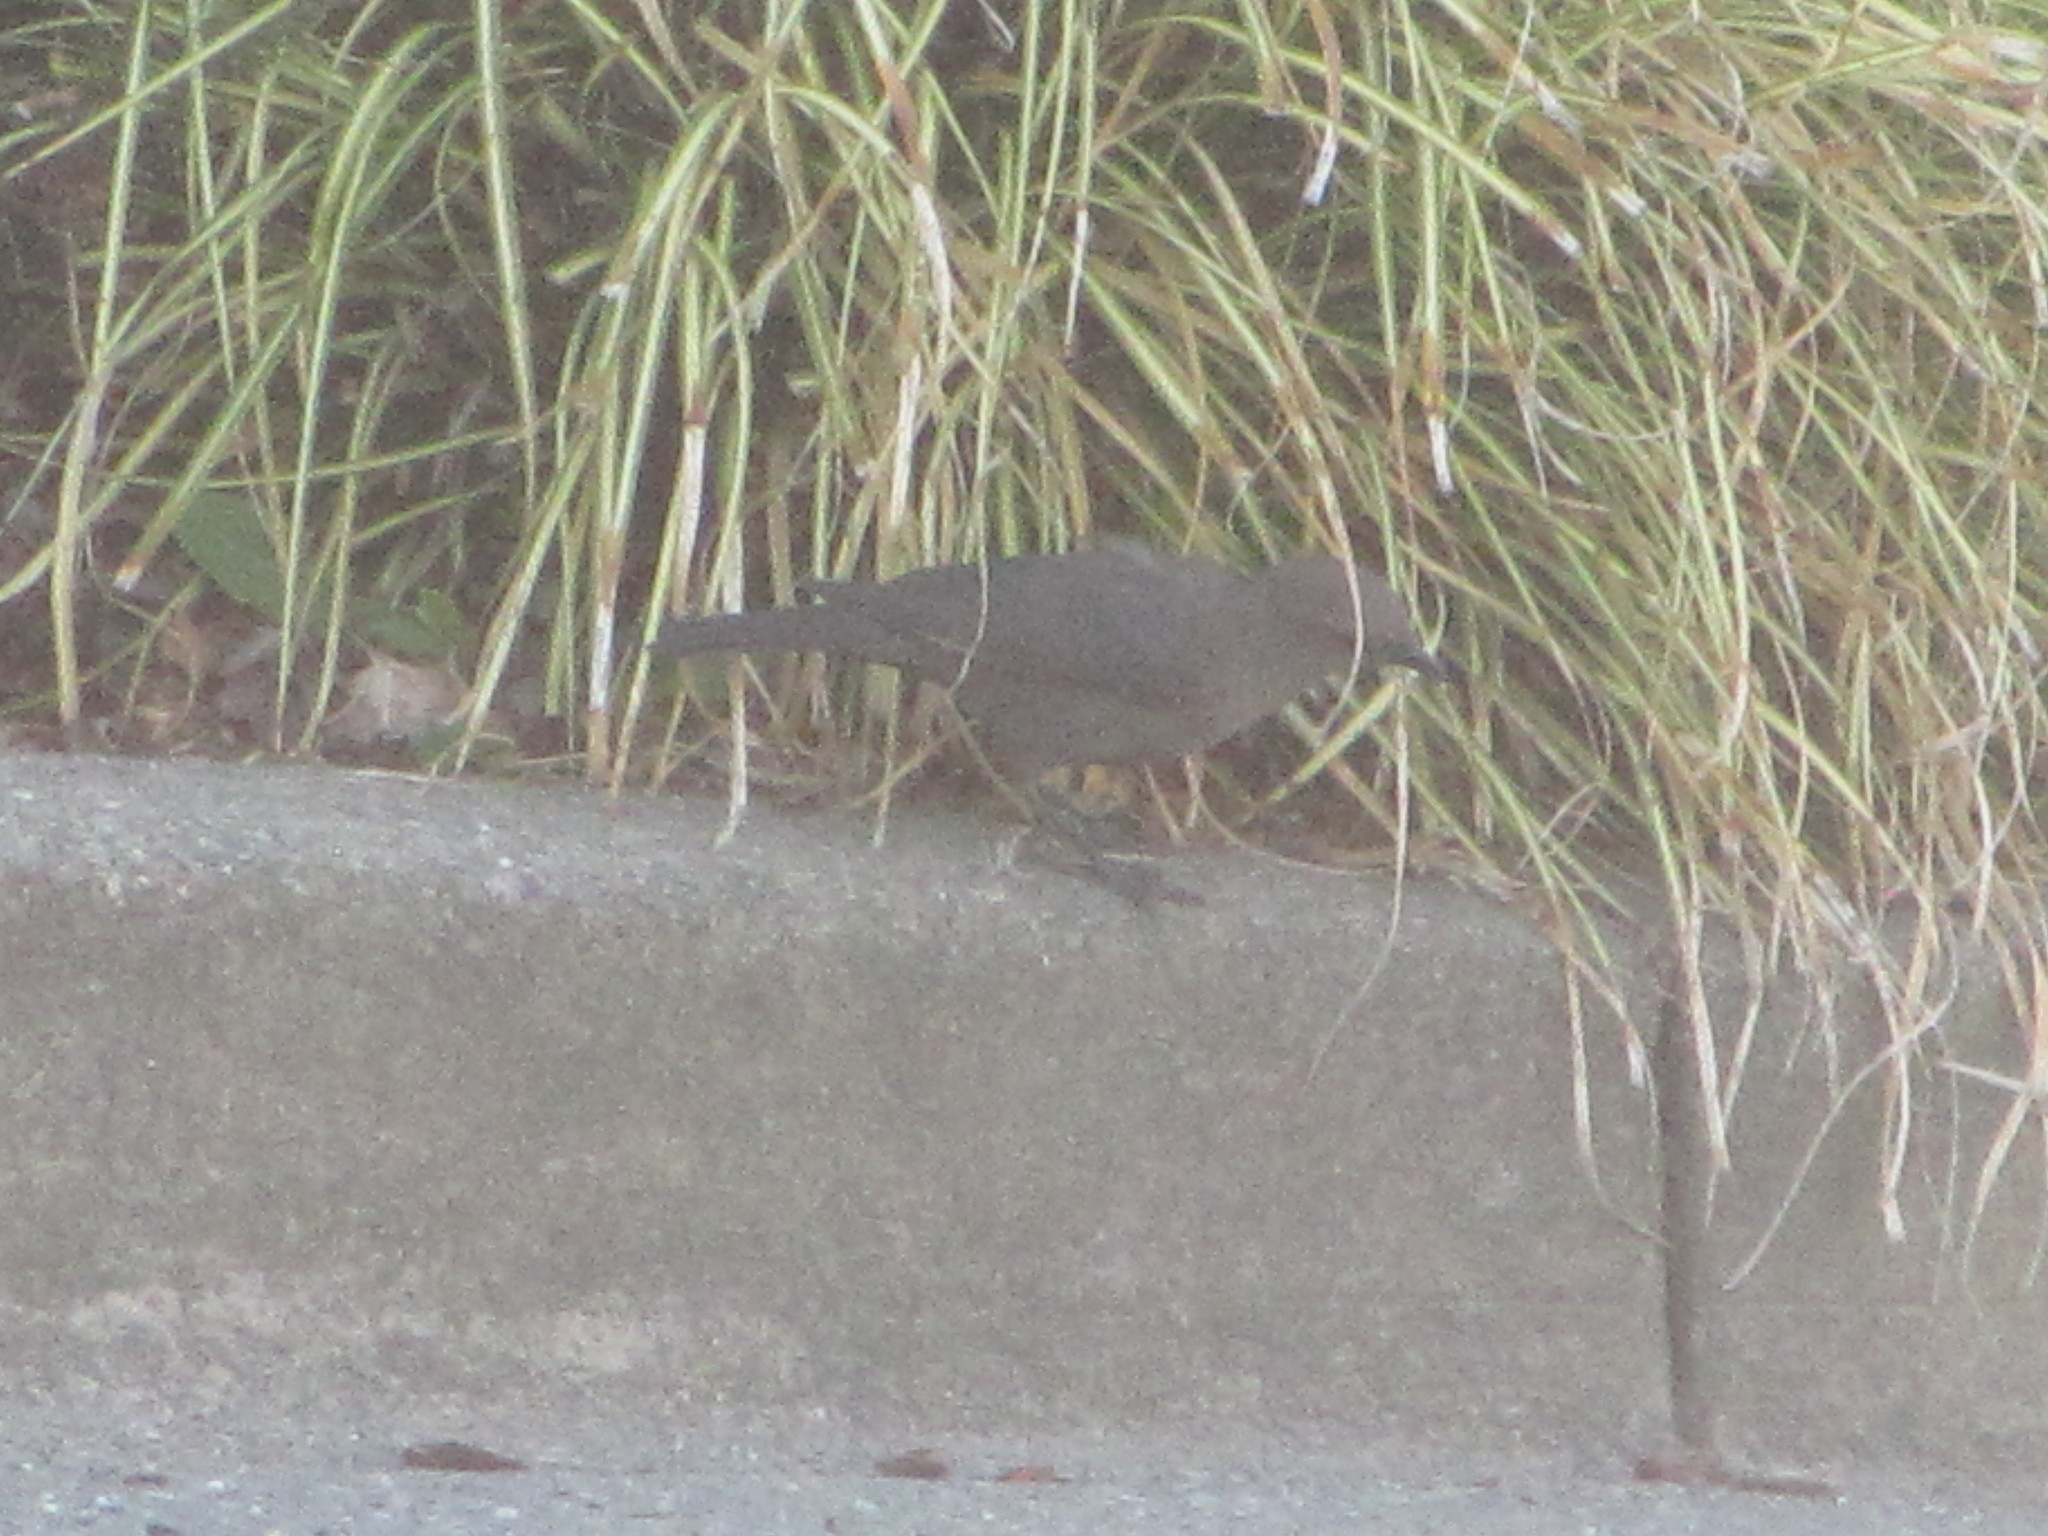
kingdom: Animalia
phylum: Chordata
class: Aves
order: Passeriformes
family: Icteridae
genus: Euphagus
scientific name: Euphagus cyanocephalus
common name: Brewer's blackbird
